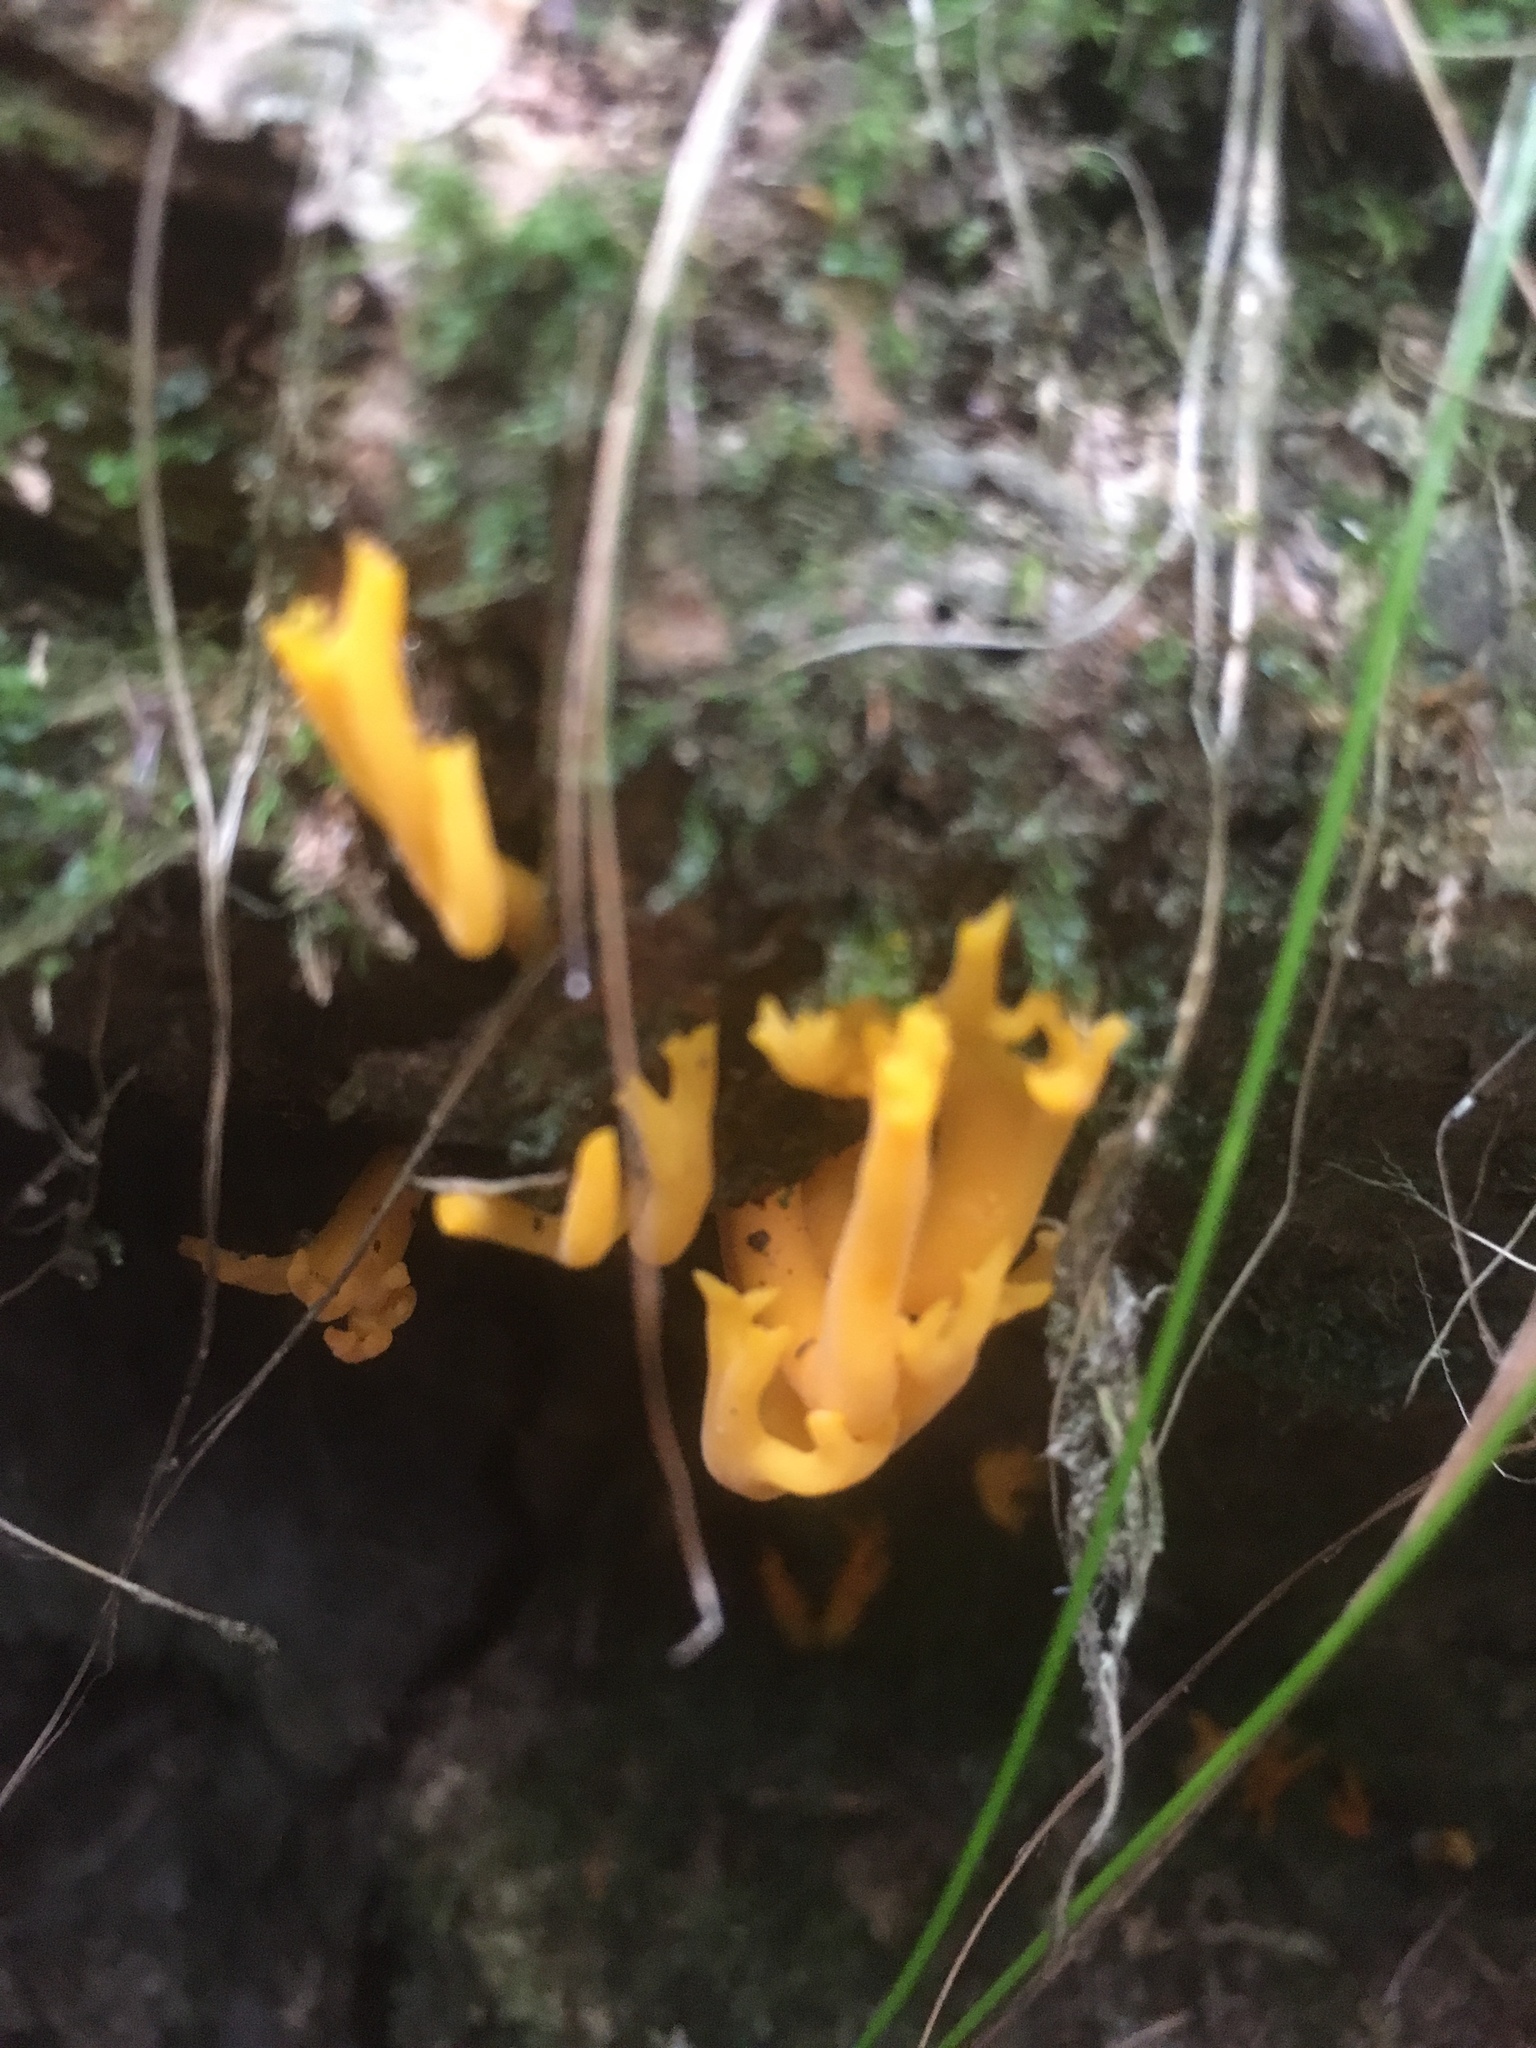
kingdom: Fungi
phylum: Basidiomycota
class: Dacrymycetes
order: Dacrymycetales
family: Dacrymycetaceae
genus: Calocera
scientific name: Calocera viscosa
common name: Yellow stagshorn
